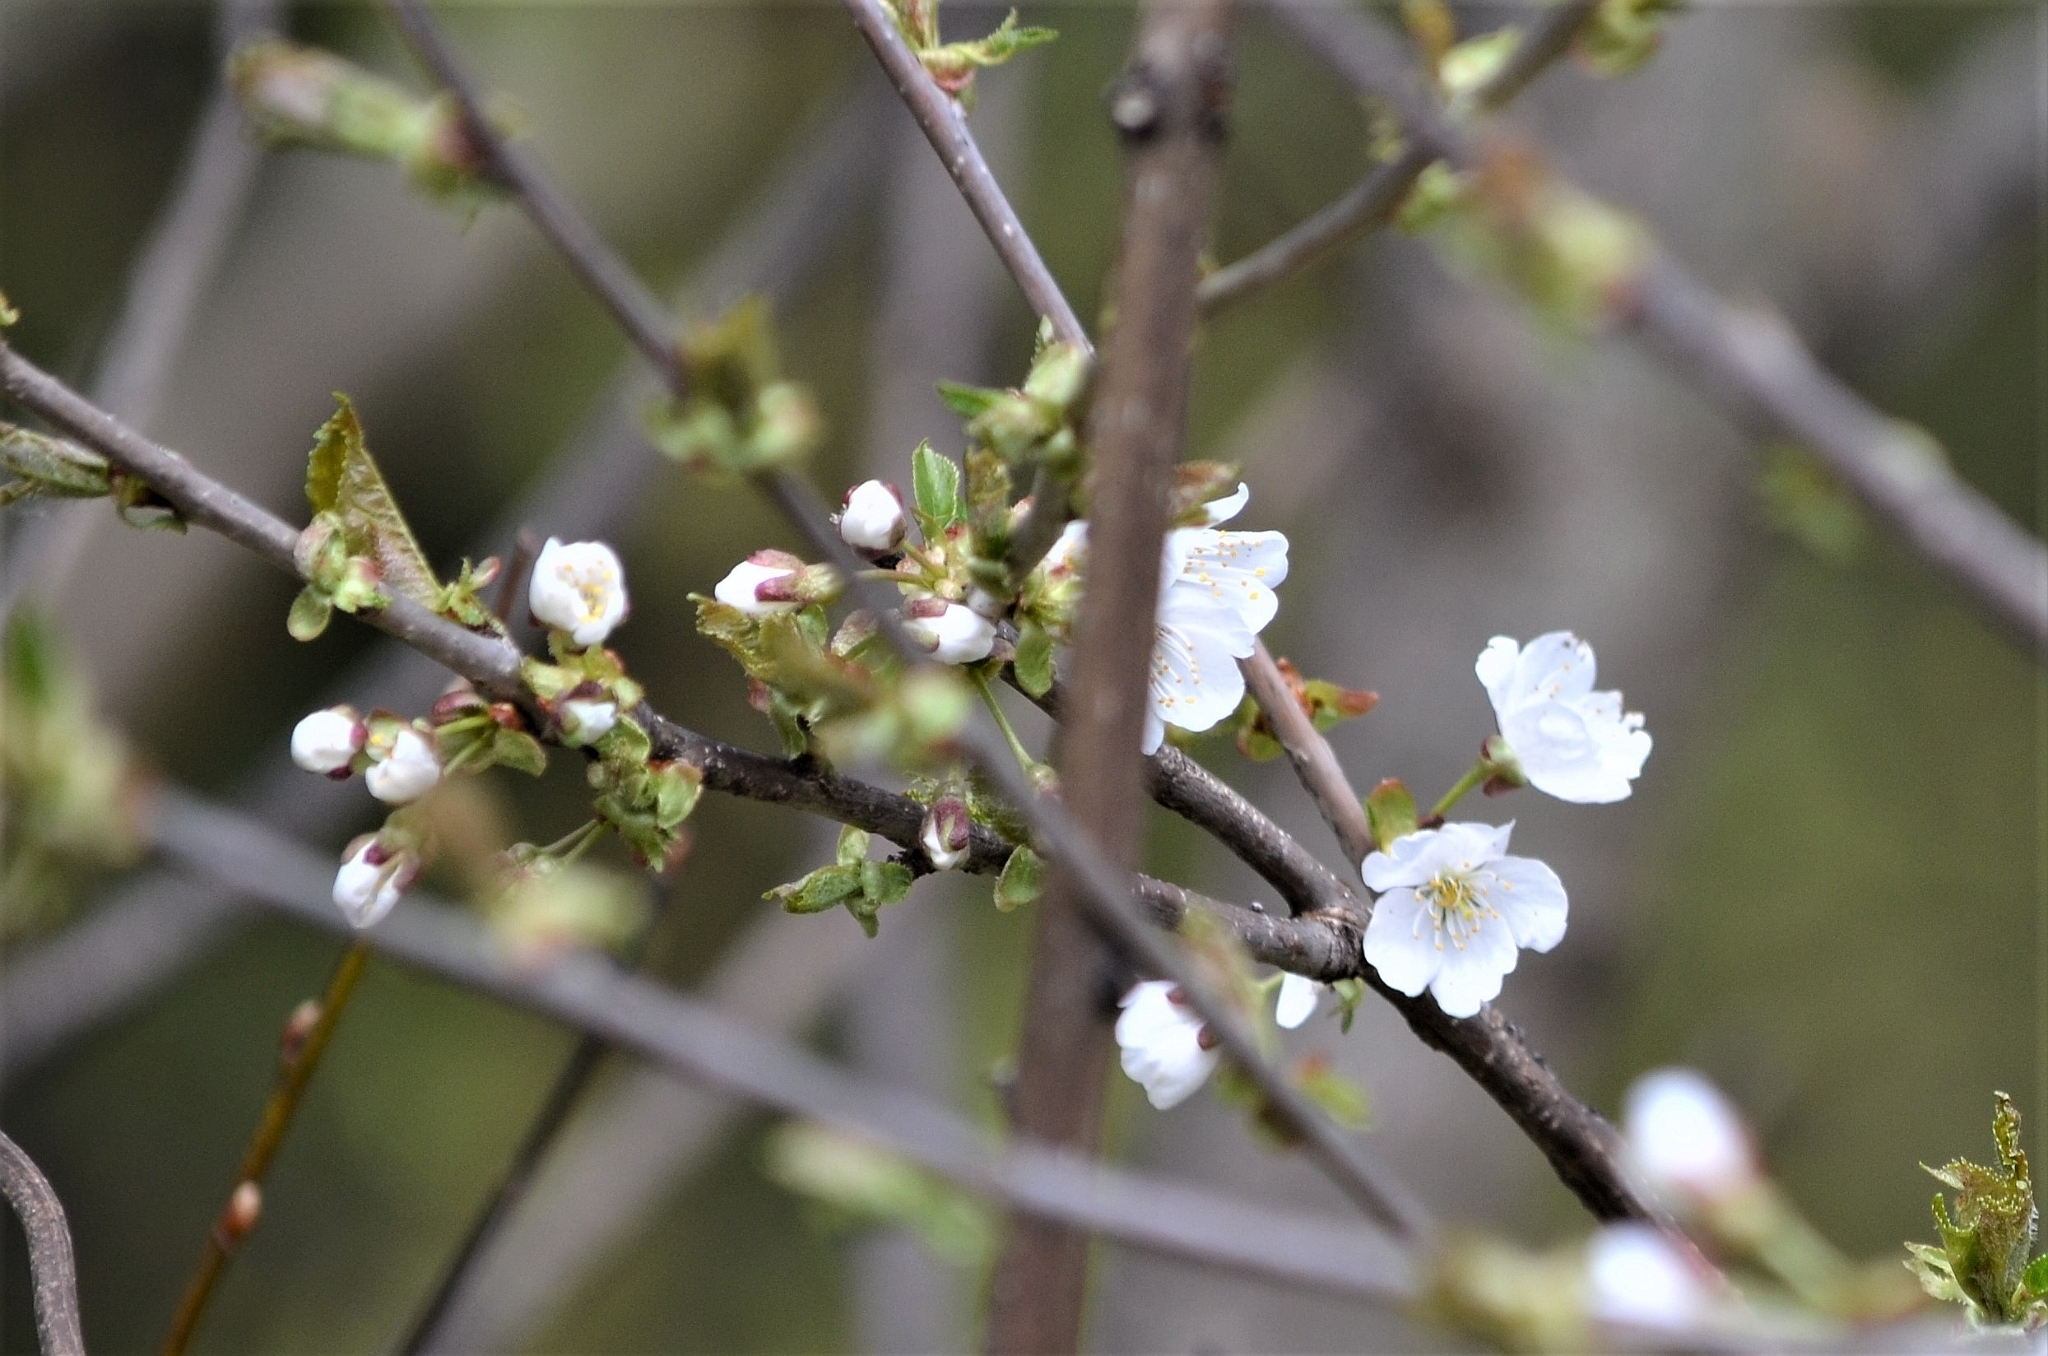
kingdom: Plantae
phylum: Tracheophyta
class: Magnoliopsida
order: Rosales
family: Rosaceae
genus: Prunus
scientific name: Prunus avium
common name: Sweet cherry
